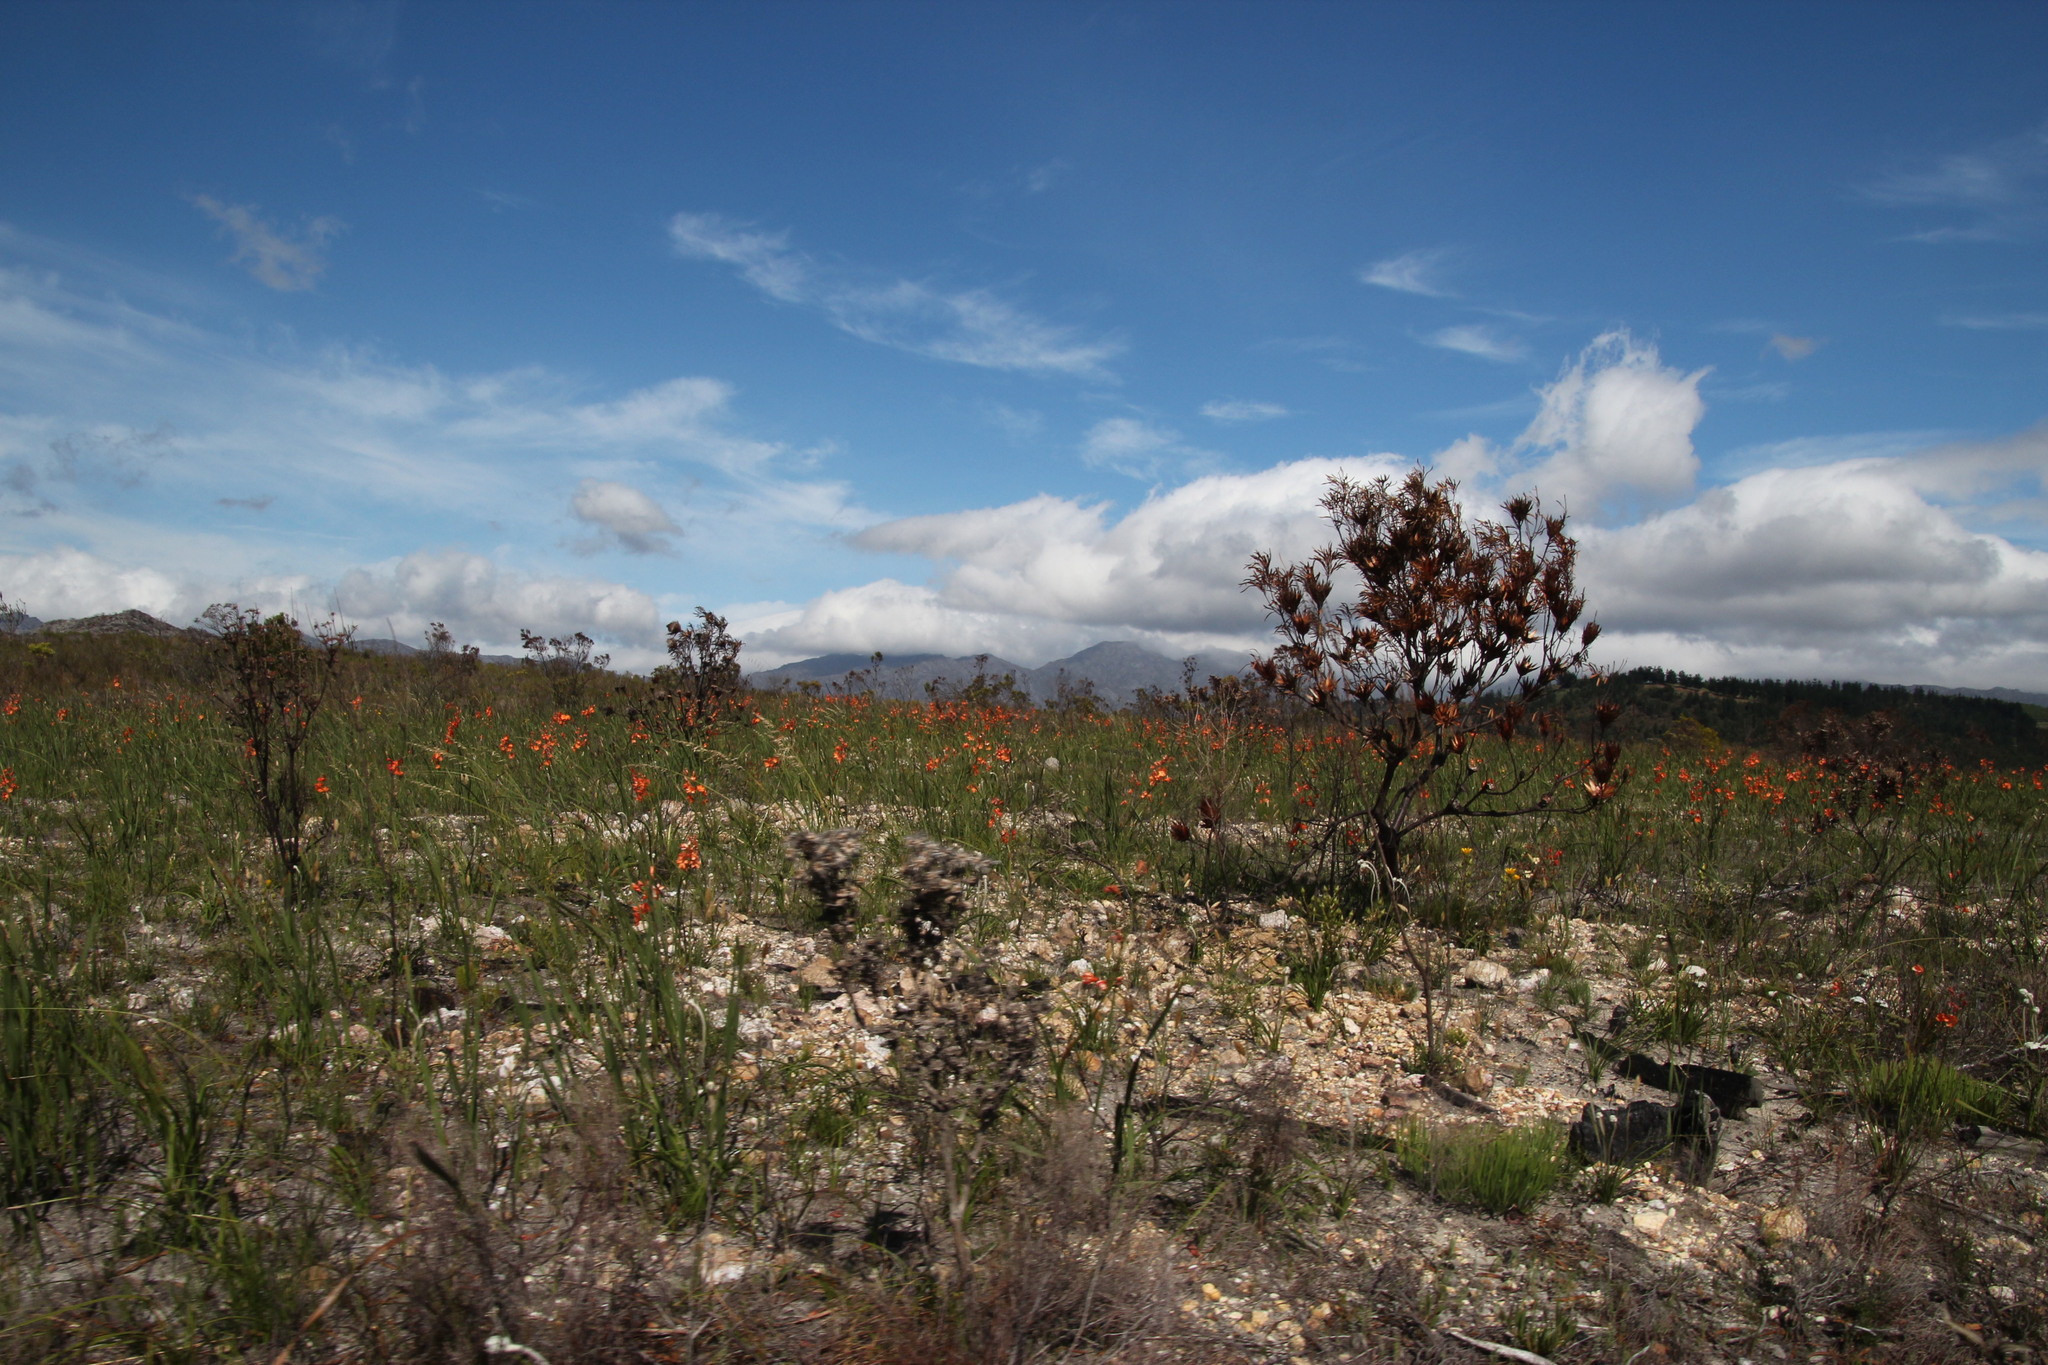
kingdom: Plantae
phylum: Tracheophyta
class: Liliopsida
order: Asparagales
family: Iridaceae
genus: Pillansia
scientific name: Pillansia templemannii
